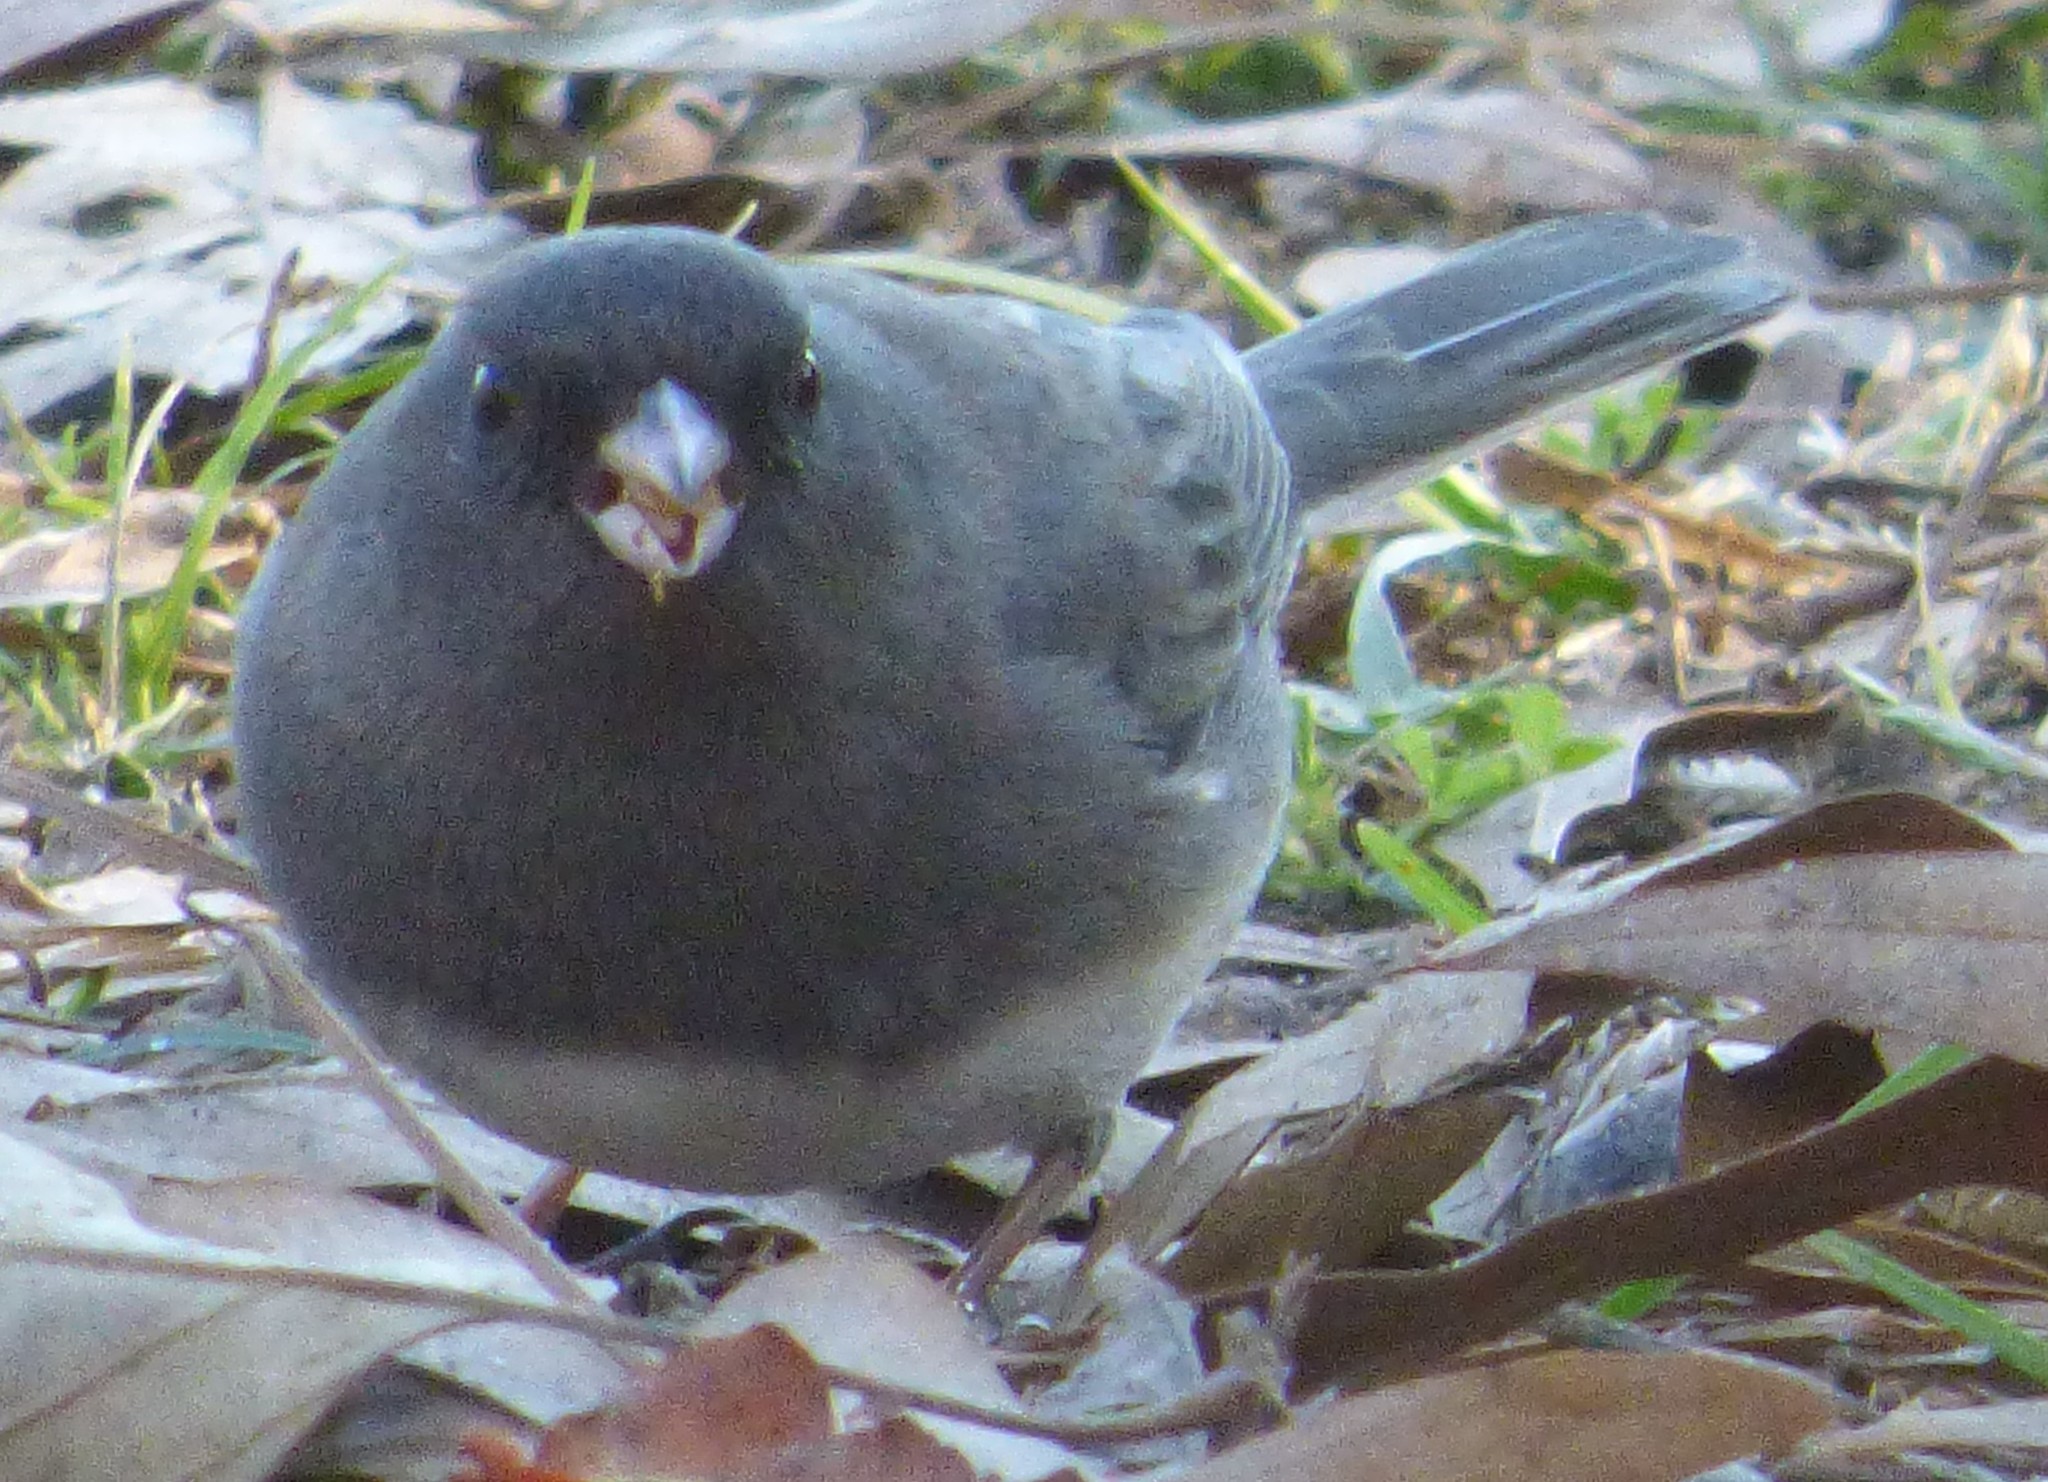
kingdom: Animalia
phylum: Chordata
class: Aves
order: Passeriformes
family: Passerellidae
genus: Junco
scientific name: Junco hyemalis
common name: Dark-eyed junco
